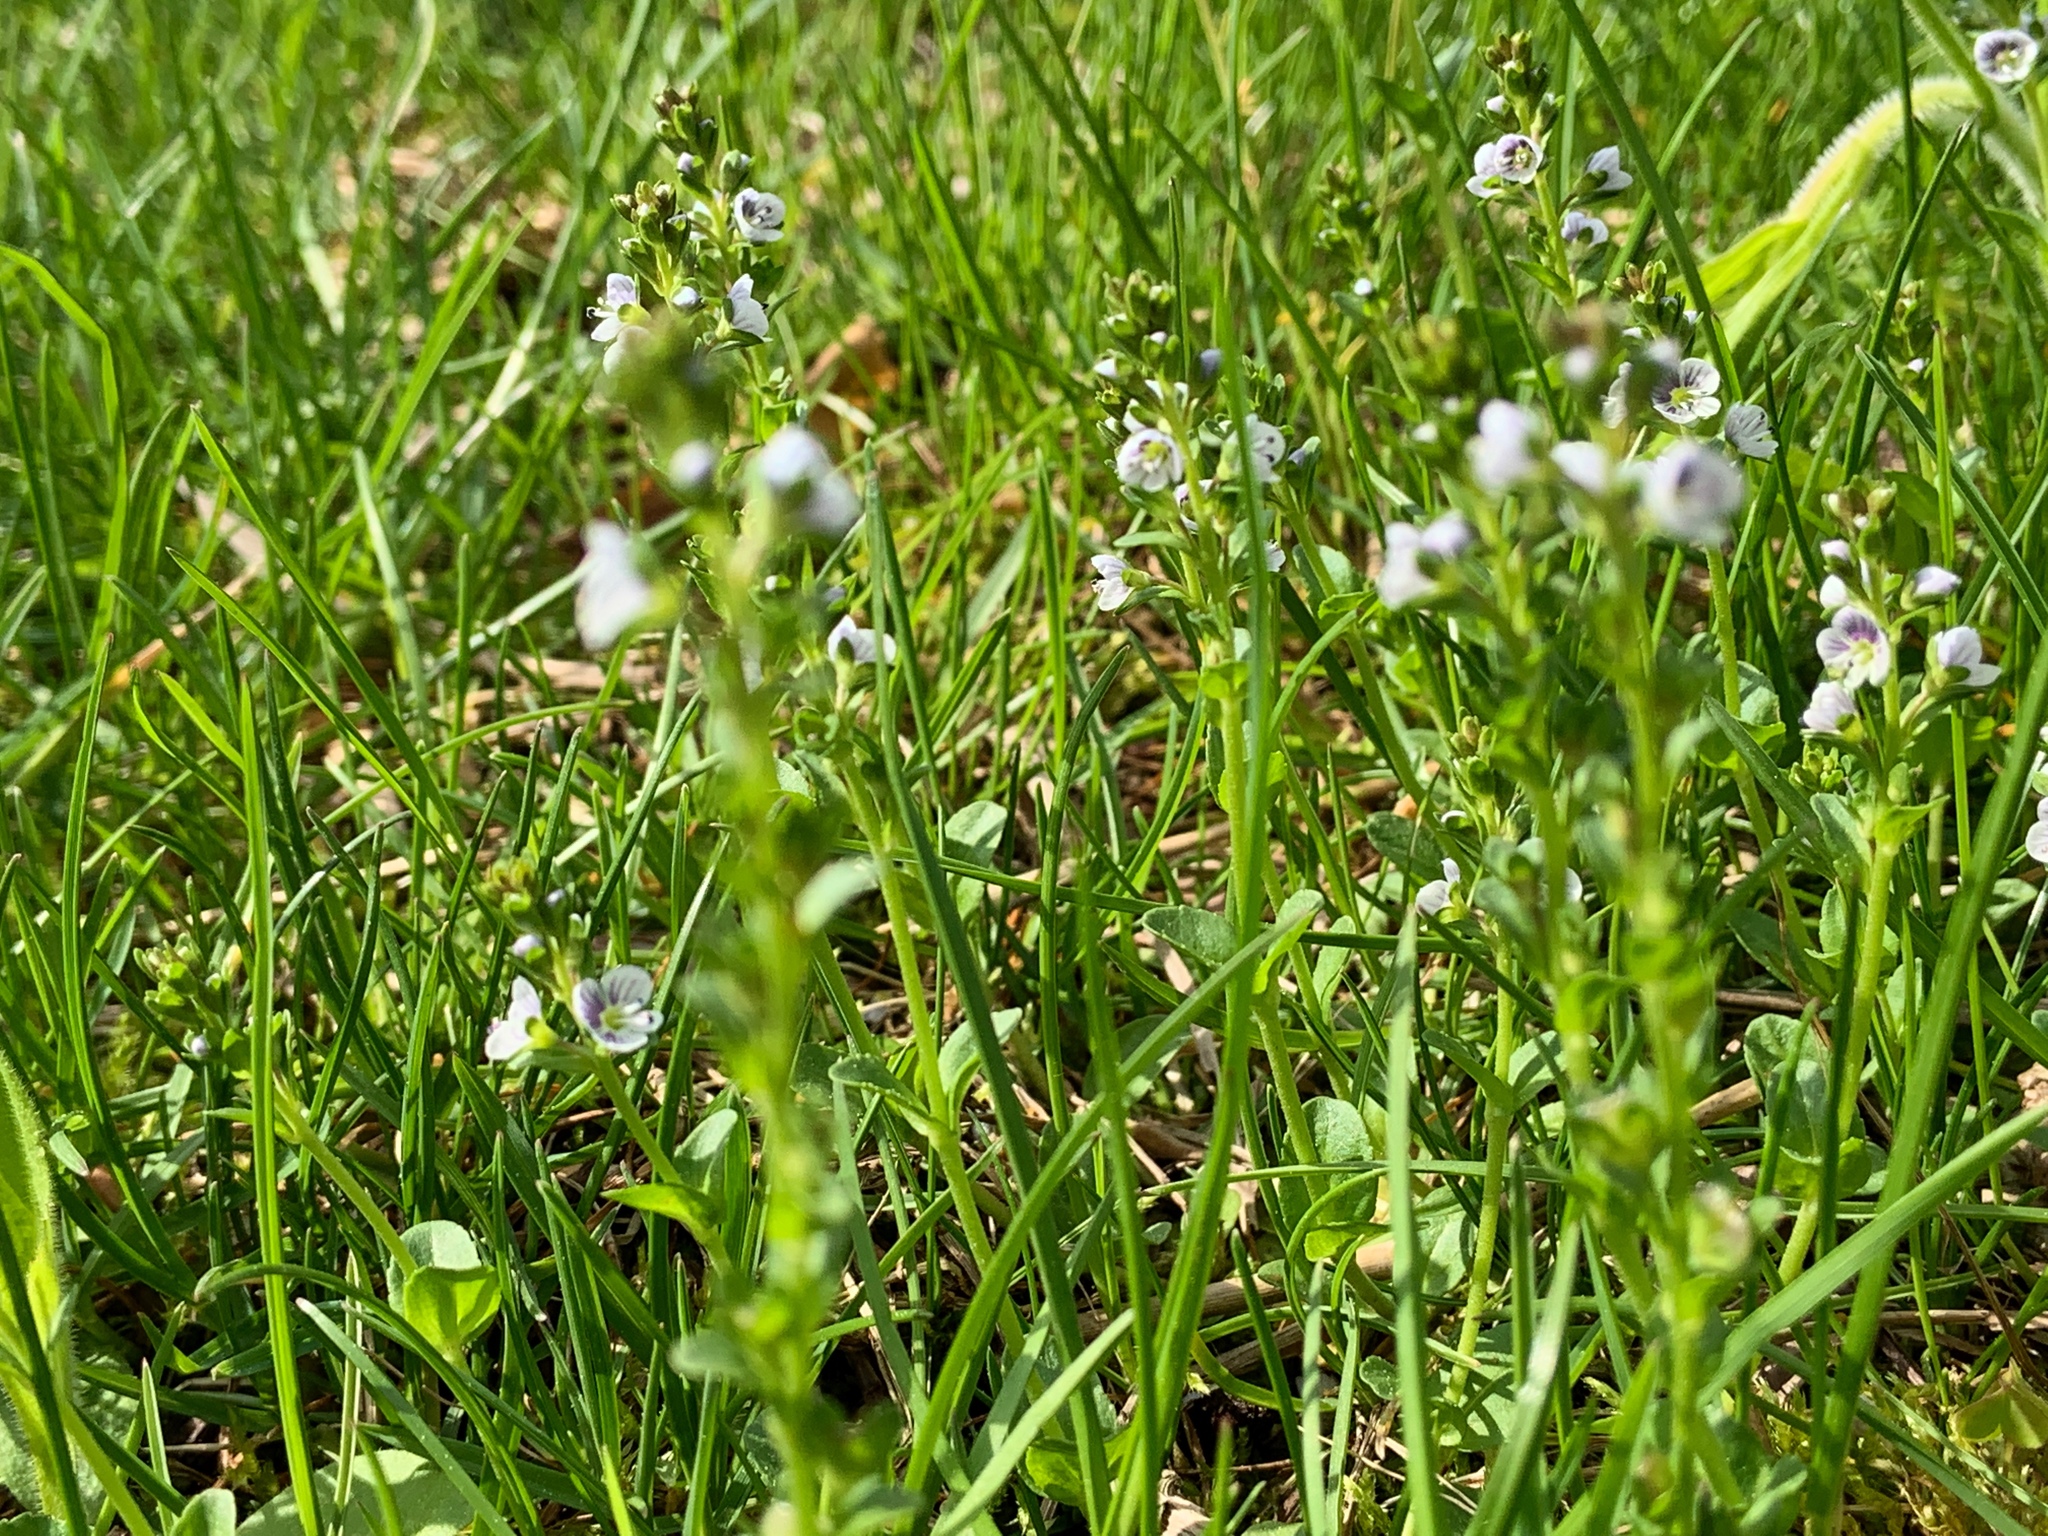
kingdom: Plantae
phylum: Tracheophyta
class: Magnoliopsida
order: Lamiales
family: Plantaginaceae
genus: Veronica
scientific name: Veronica serpyllifolia
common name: Thyme-leaved speedwell
